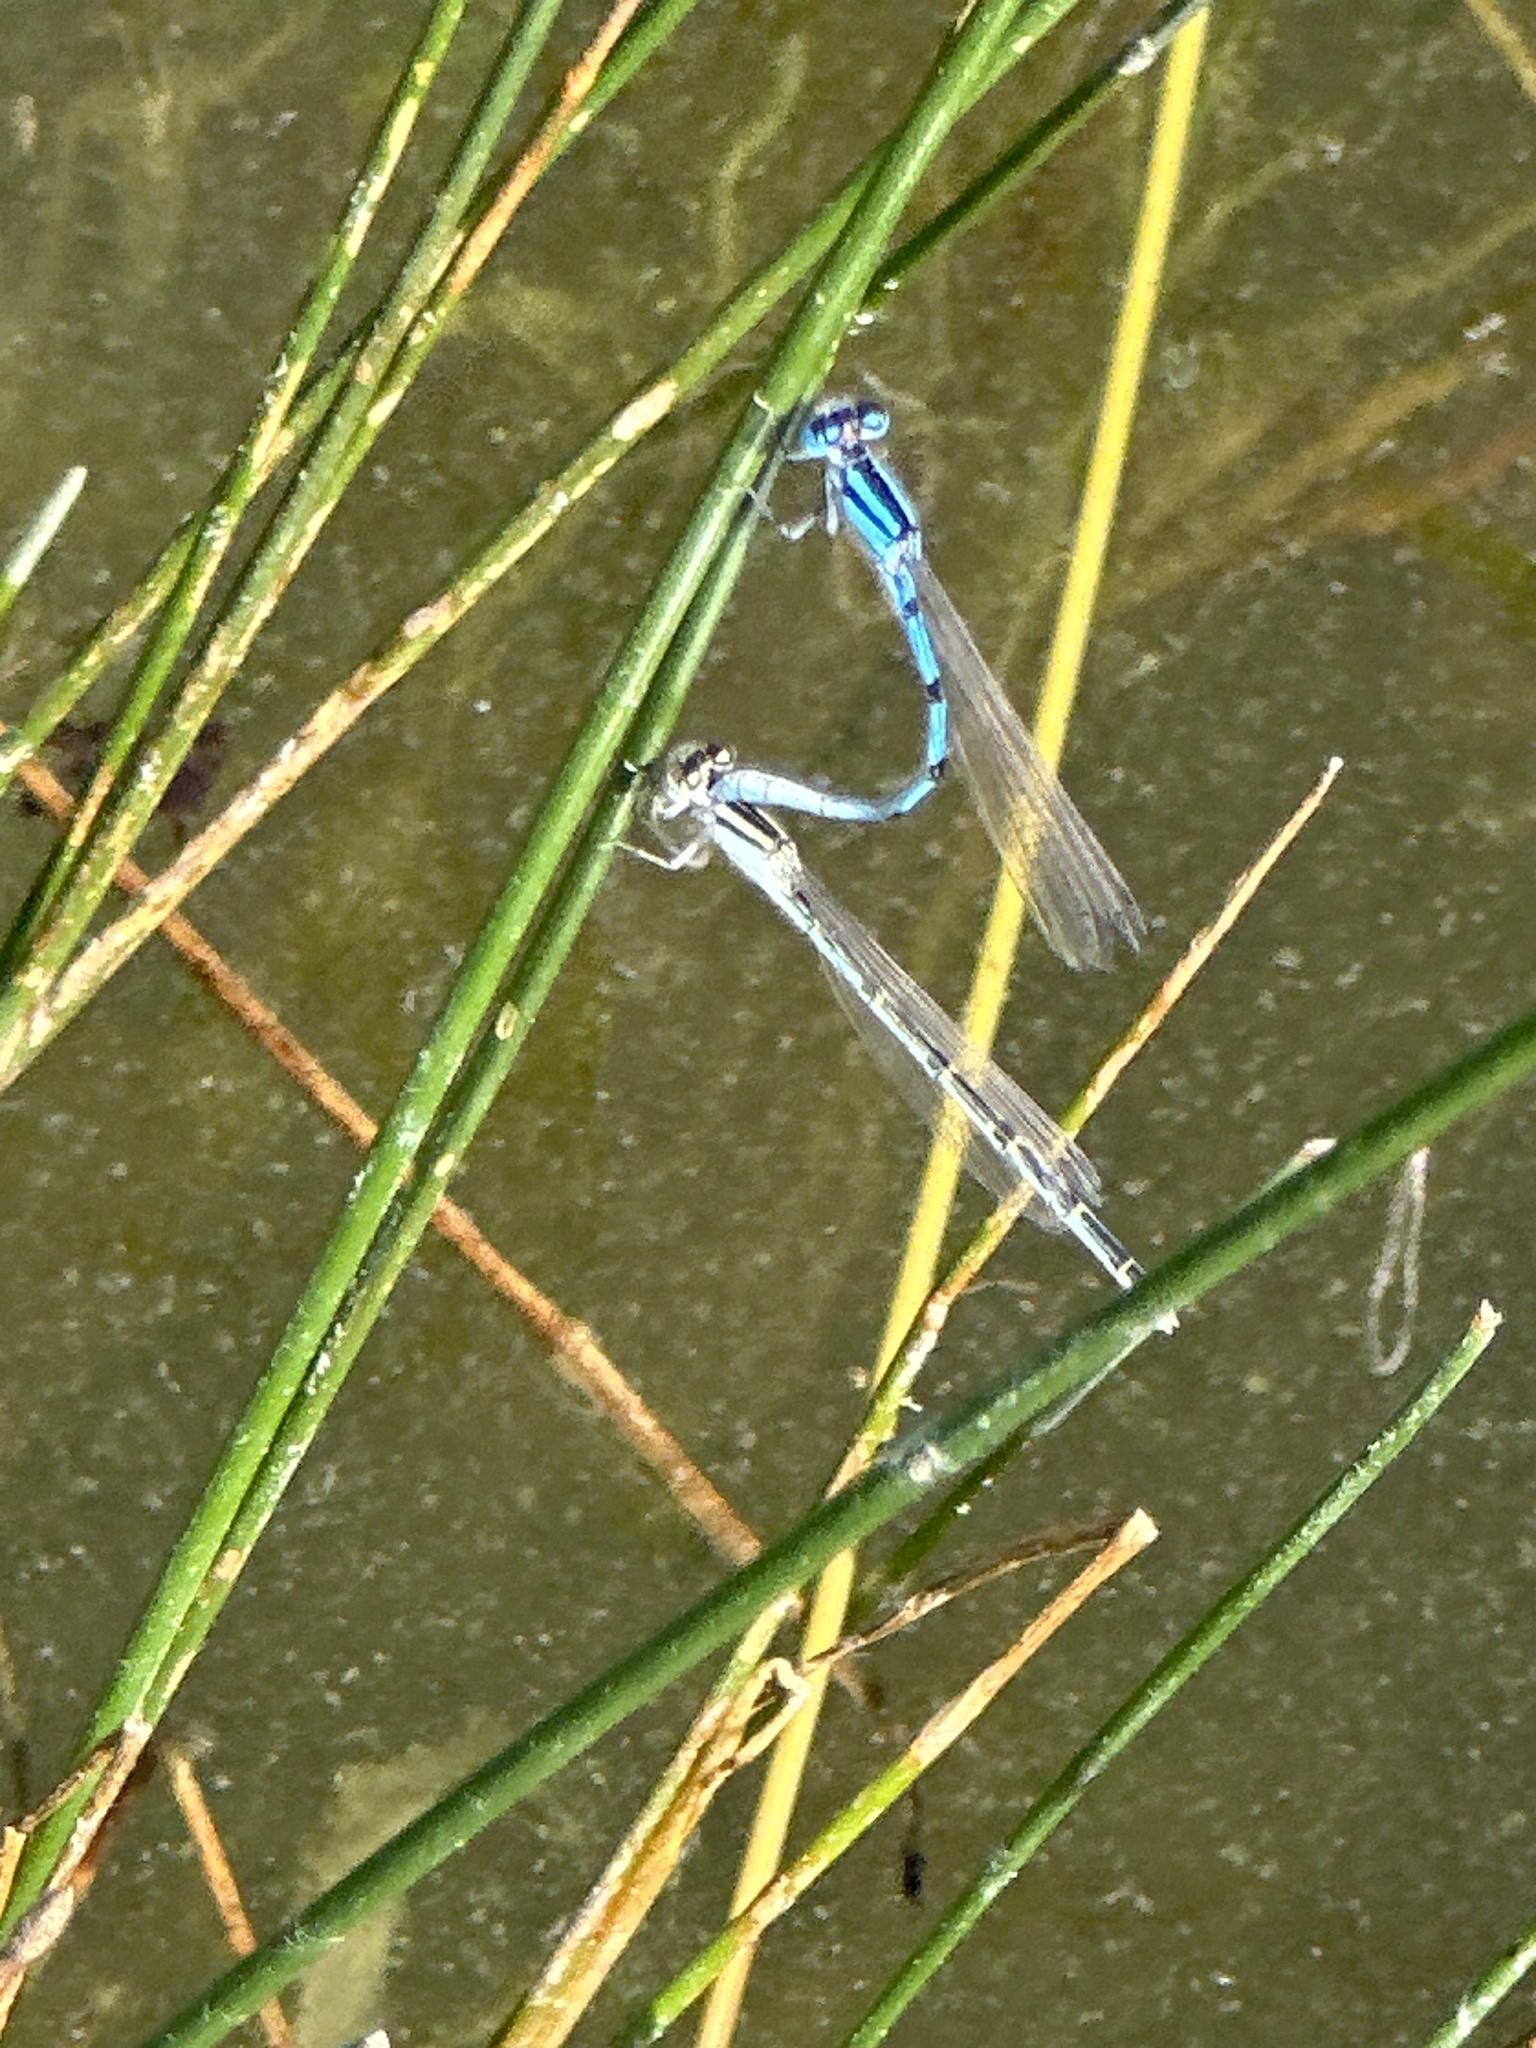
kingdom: Animalia
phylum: Arthropoda
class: Insecta
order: Odonata
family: Coenagrionidae
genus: Enallagma
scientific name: Enallagma civile
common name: Damselfly
